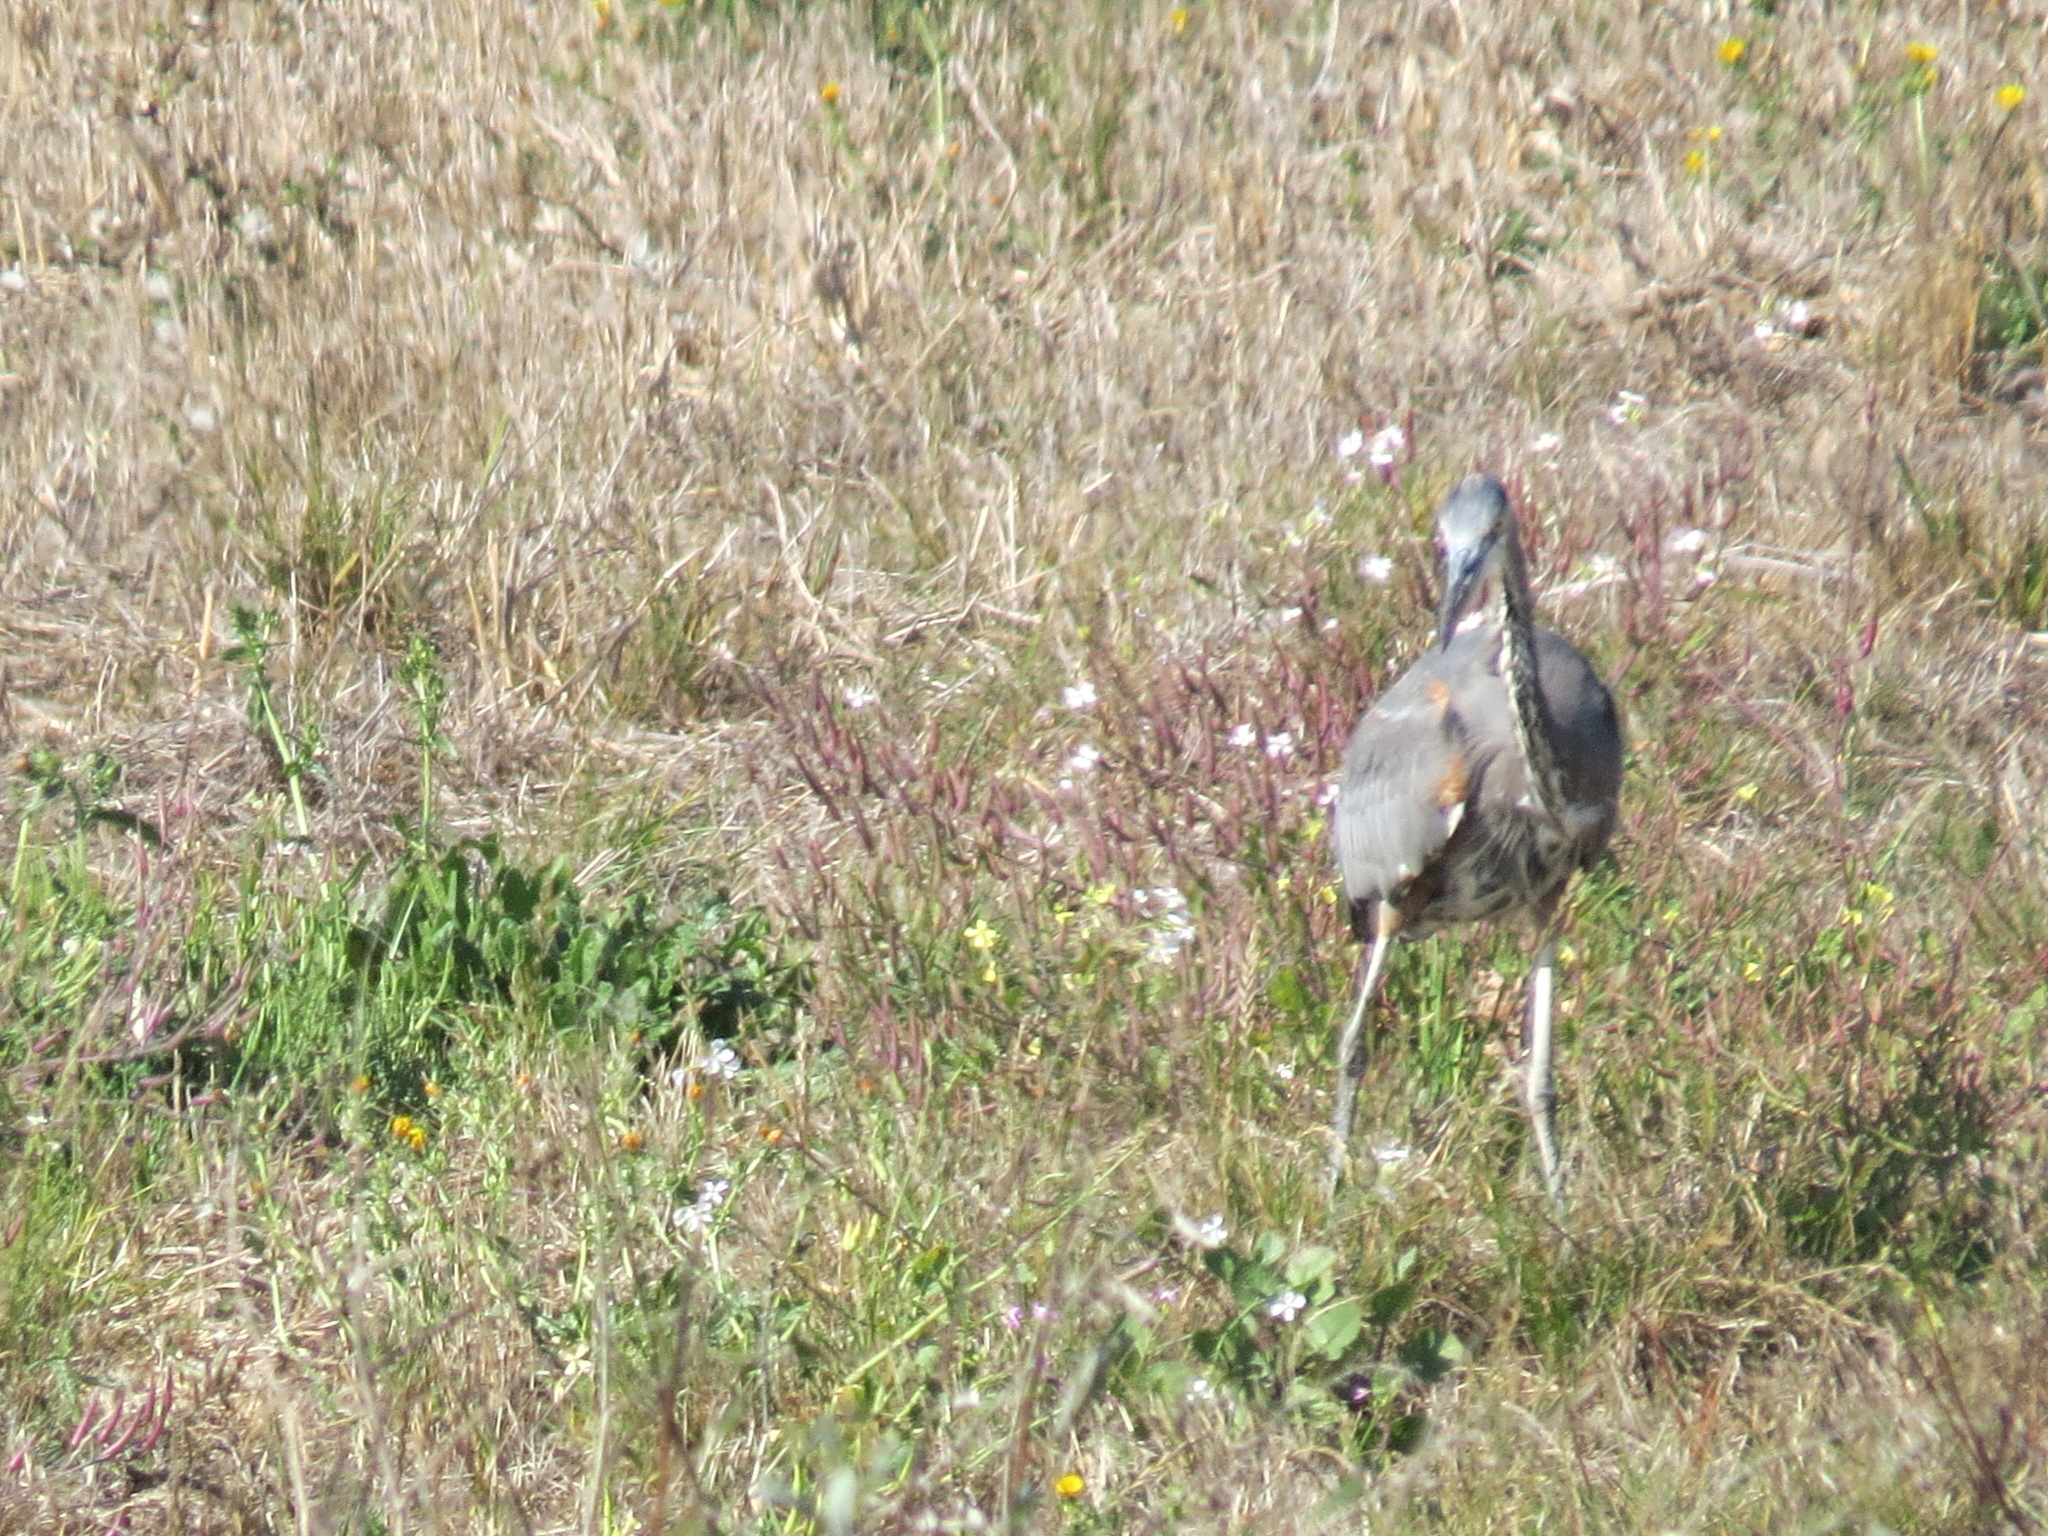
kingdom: Animalia
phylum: Chordata
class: Aves
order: Pelecaniformes
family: Ardeidae
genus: Ardea
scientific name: Ardea herodias
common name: Great blue heron
